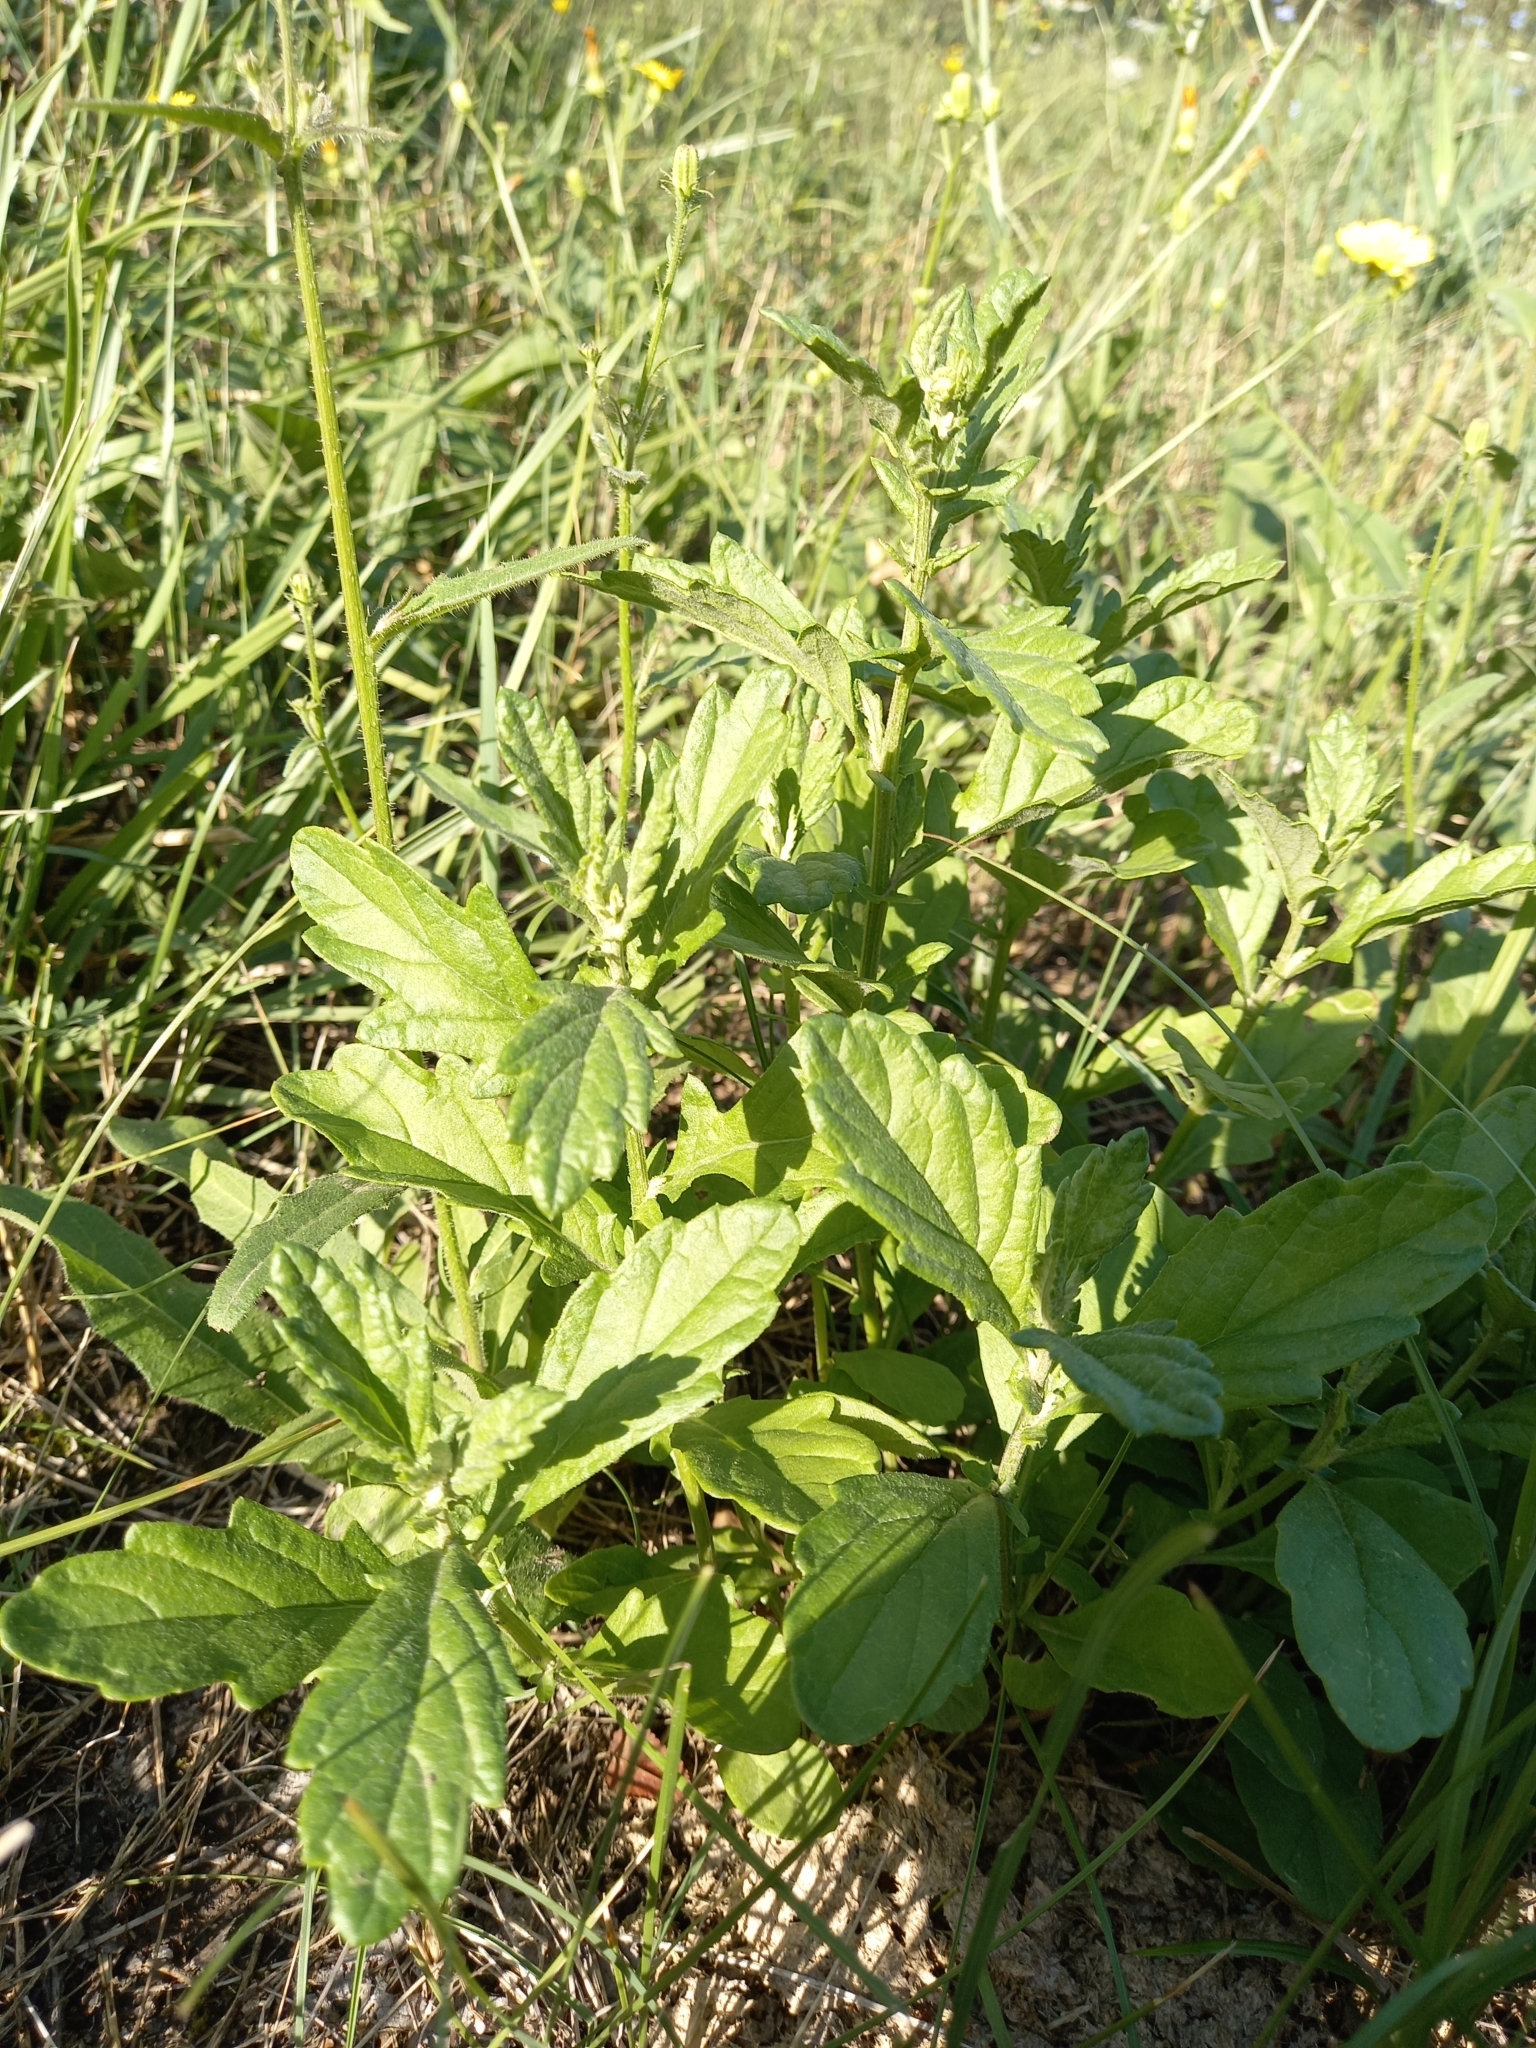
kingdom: Plantae
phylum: Tracheophyta
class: Magnoliopsida
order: Asterales
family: Asteraceae
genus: Jacobaea
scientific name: Jacobaea erucifolia
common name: Hoary ragwort
